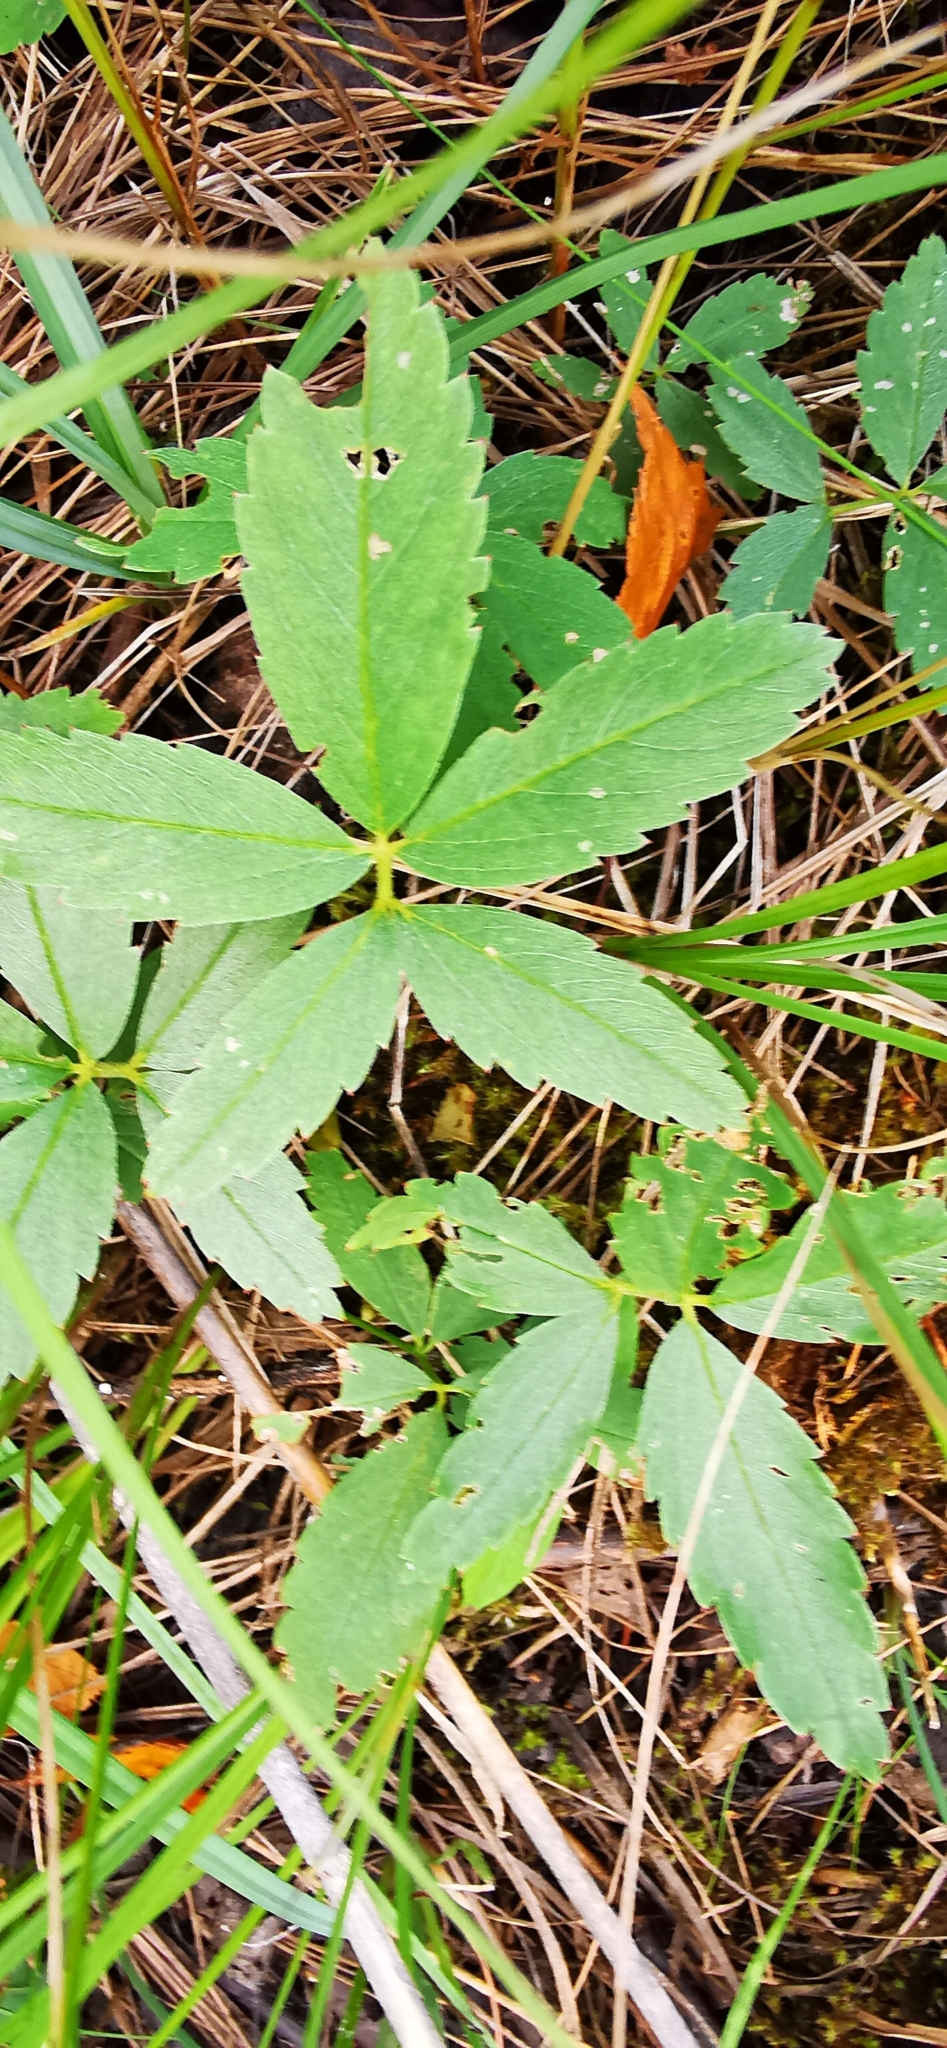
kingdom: Plantae
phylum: Tracheophyta
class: Magnoliopsida
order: Rosales
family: Rosaceae
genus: Comarum
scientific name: Comarum palustre
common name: Marsh cinquefoil
